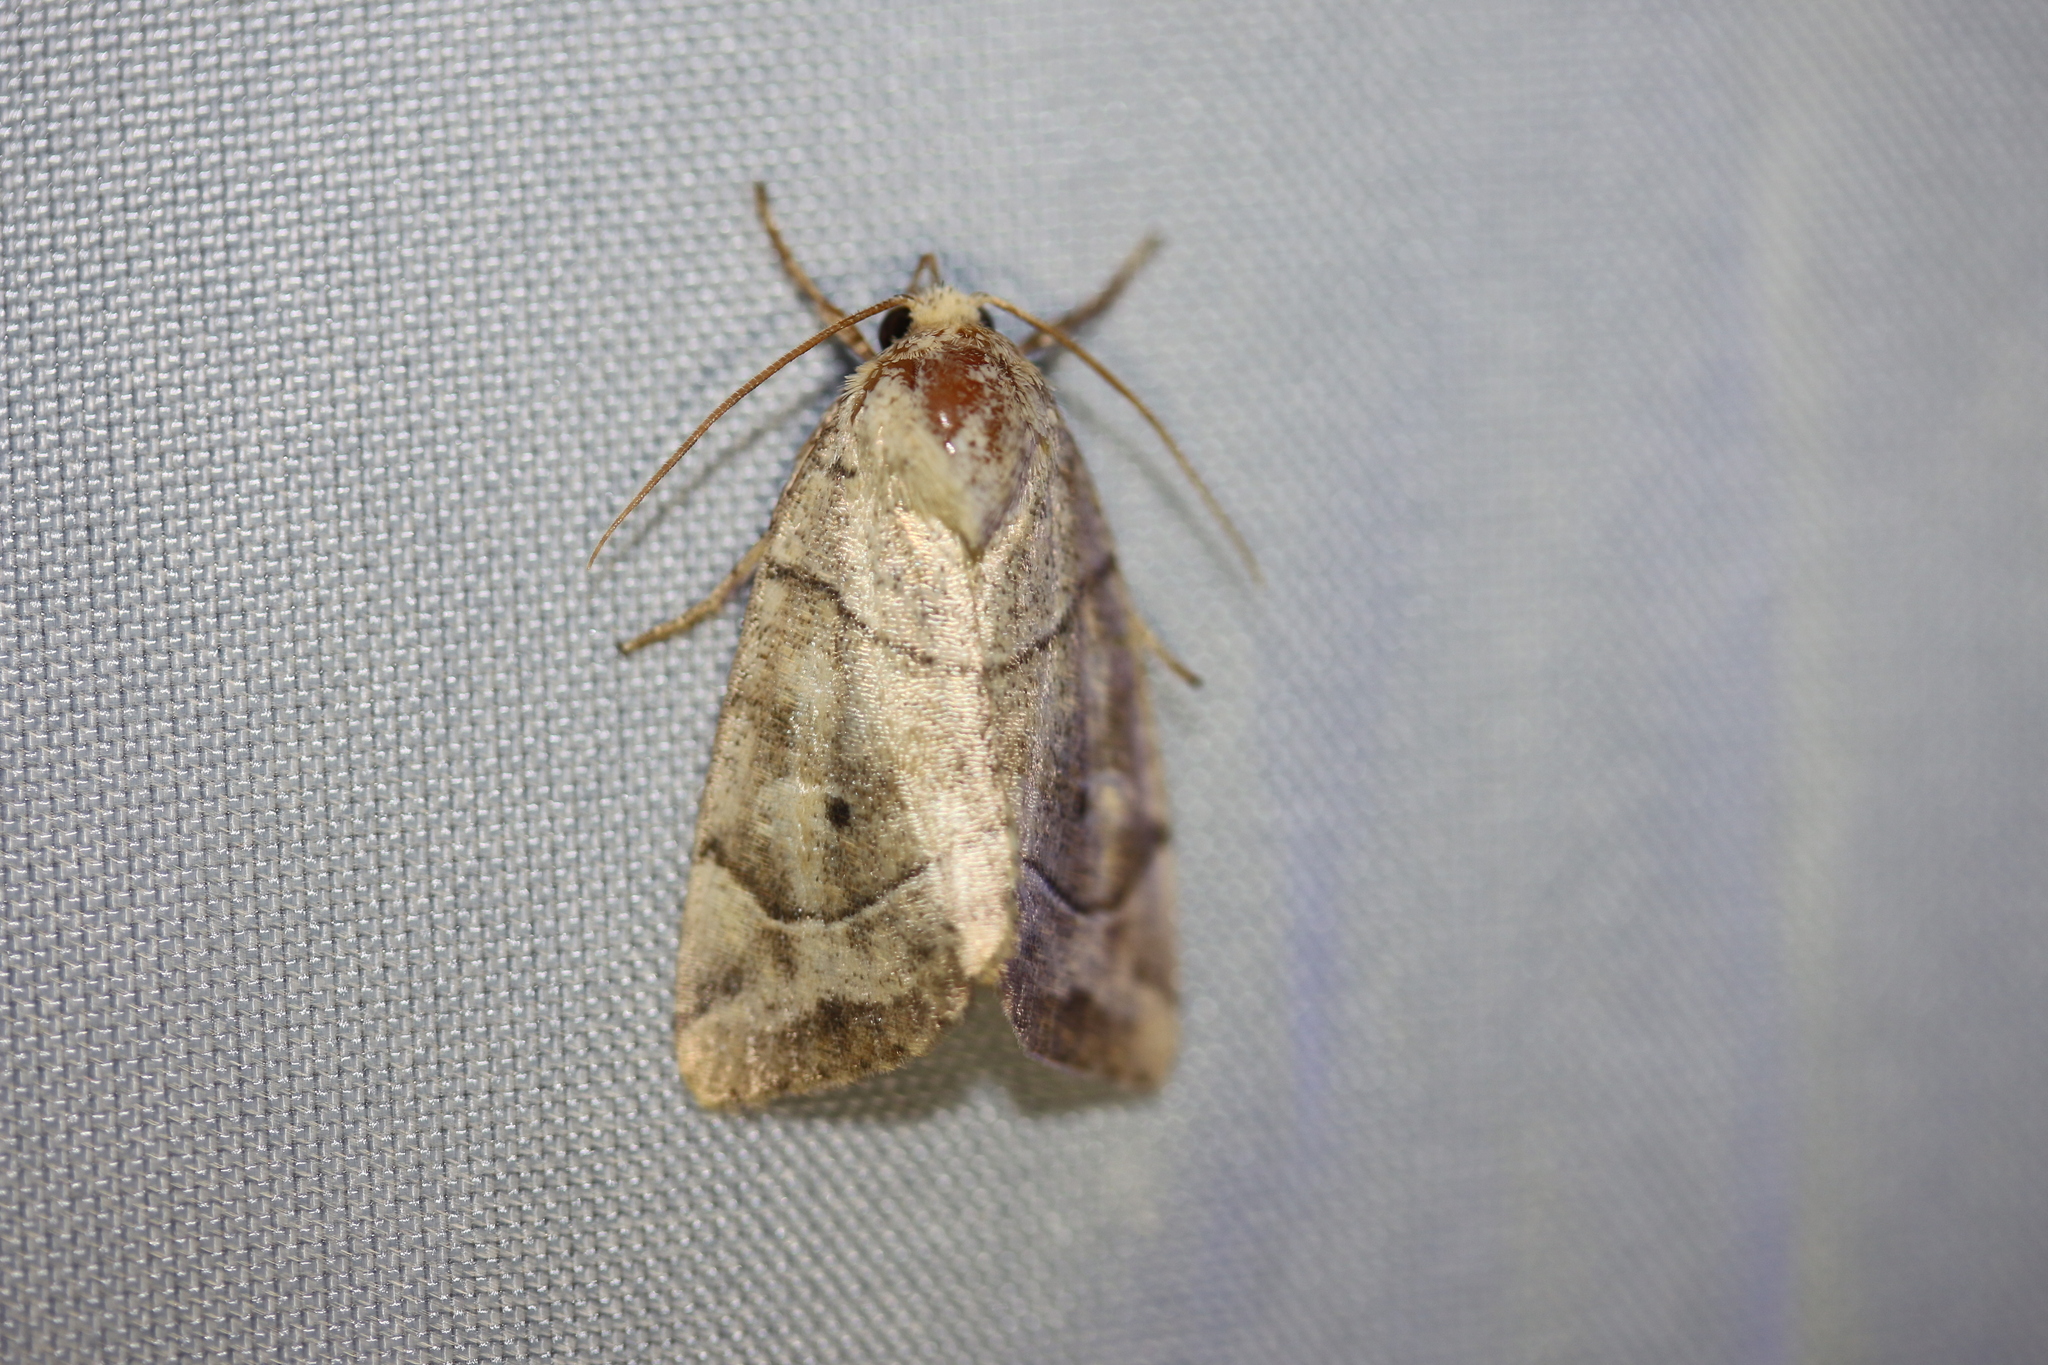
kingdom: Animalia
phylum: Arthropoda
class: Insecta
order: Lepidoptera
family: Noctuidae
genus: Cosmia
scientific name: Cosmia trapezina
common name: Dun-bar
